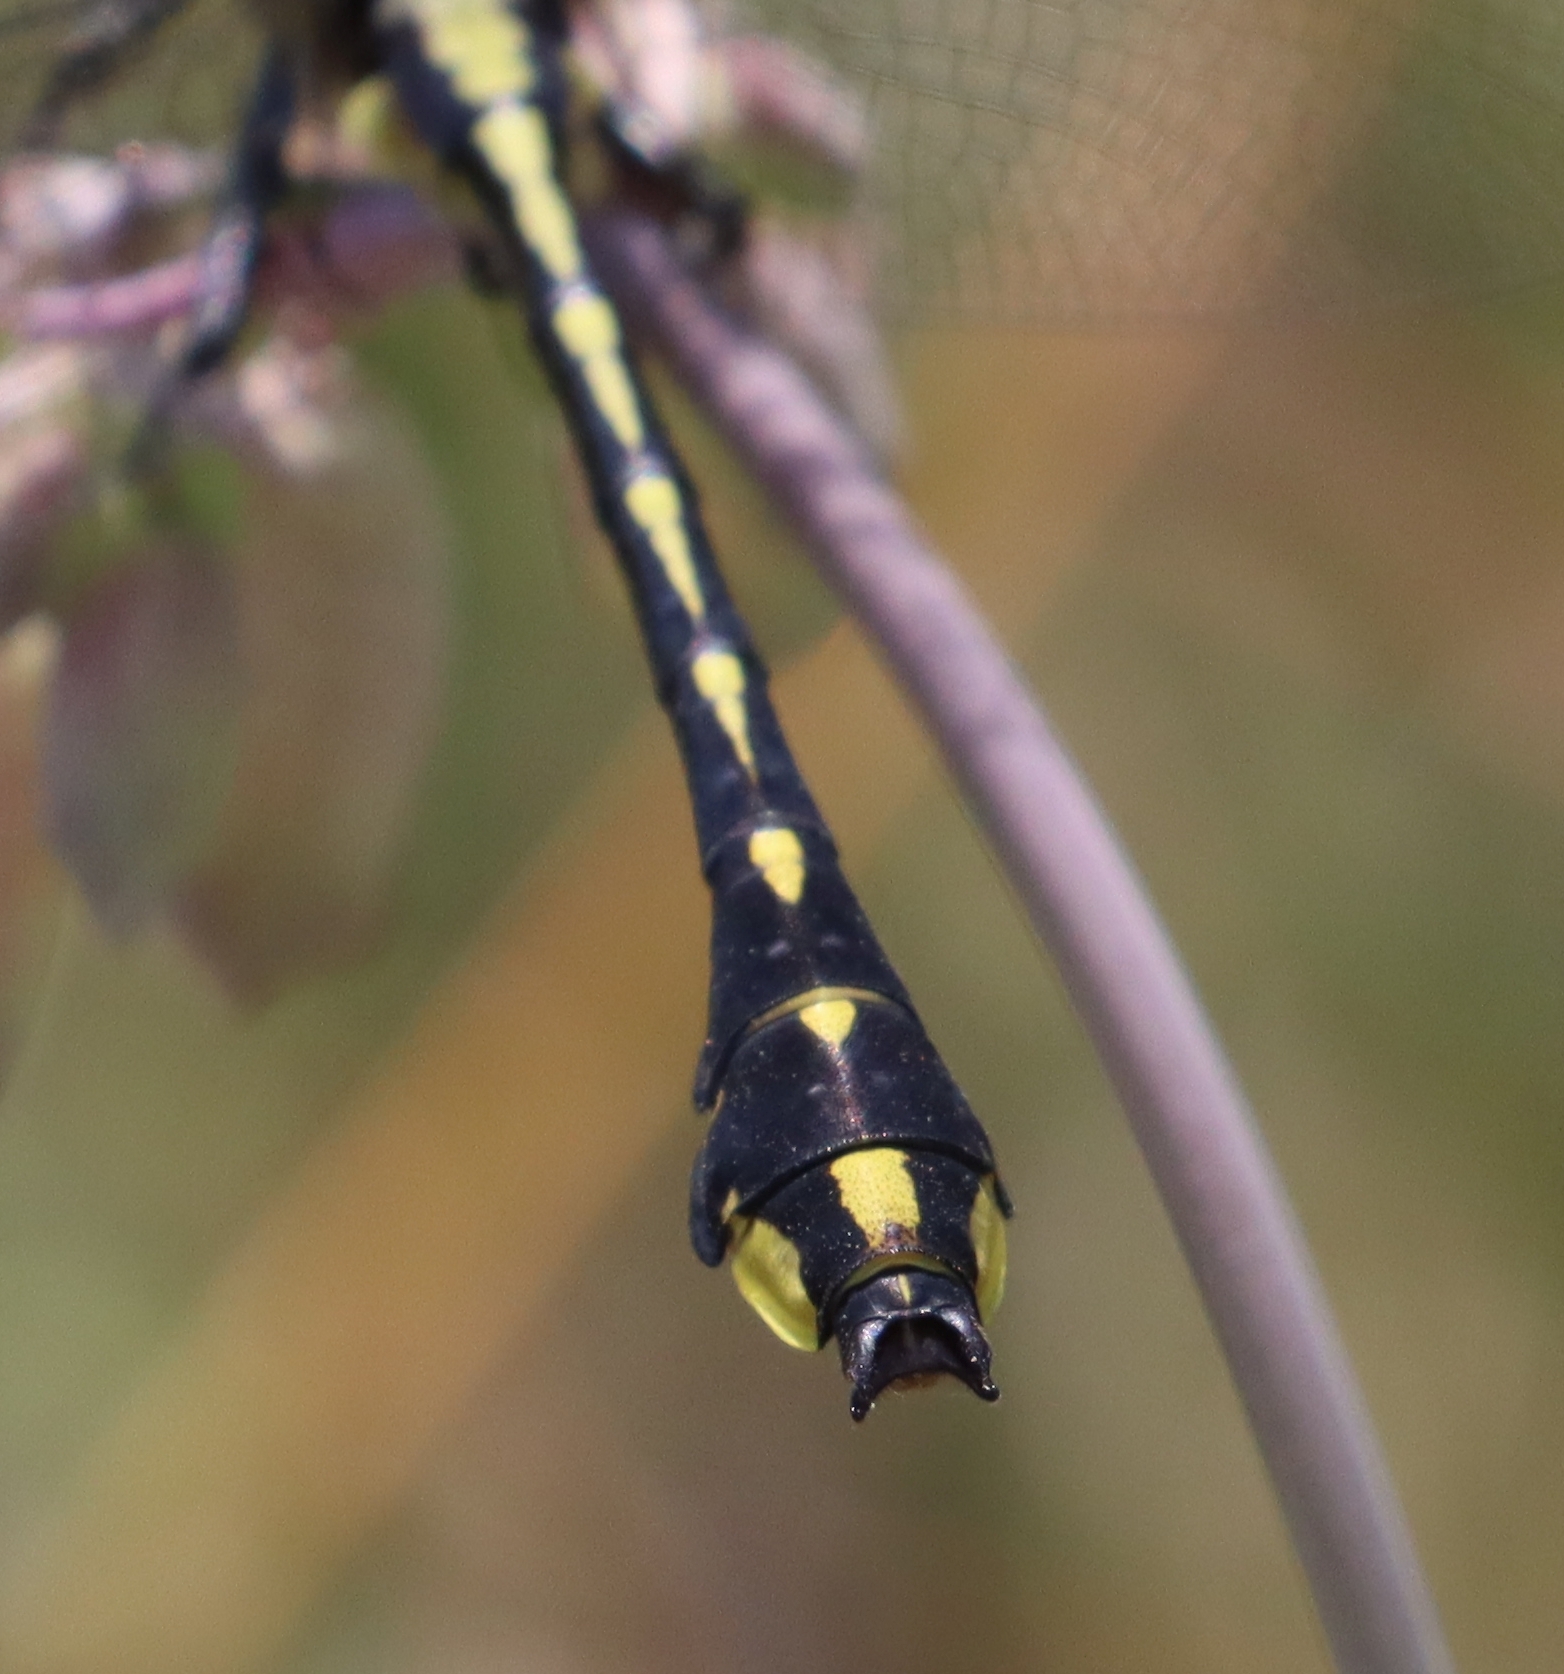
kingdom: Animalia
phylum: Arthropoda
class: Insecta
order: Odonata
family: Gomphidae
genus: Gomphurus
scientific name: Gomphurus crassus
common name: Handsome clubtail
